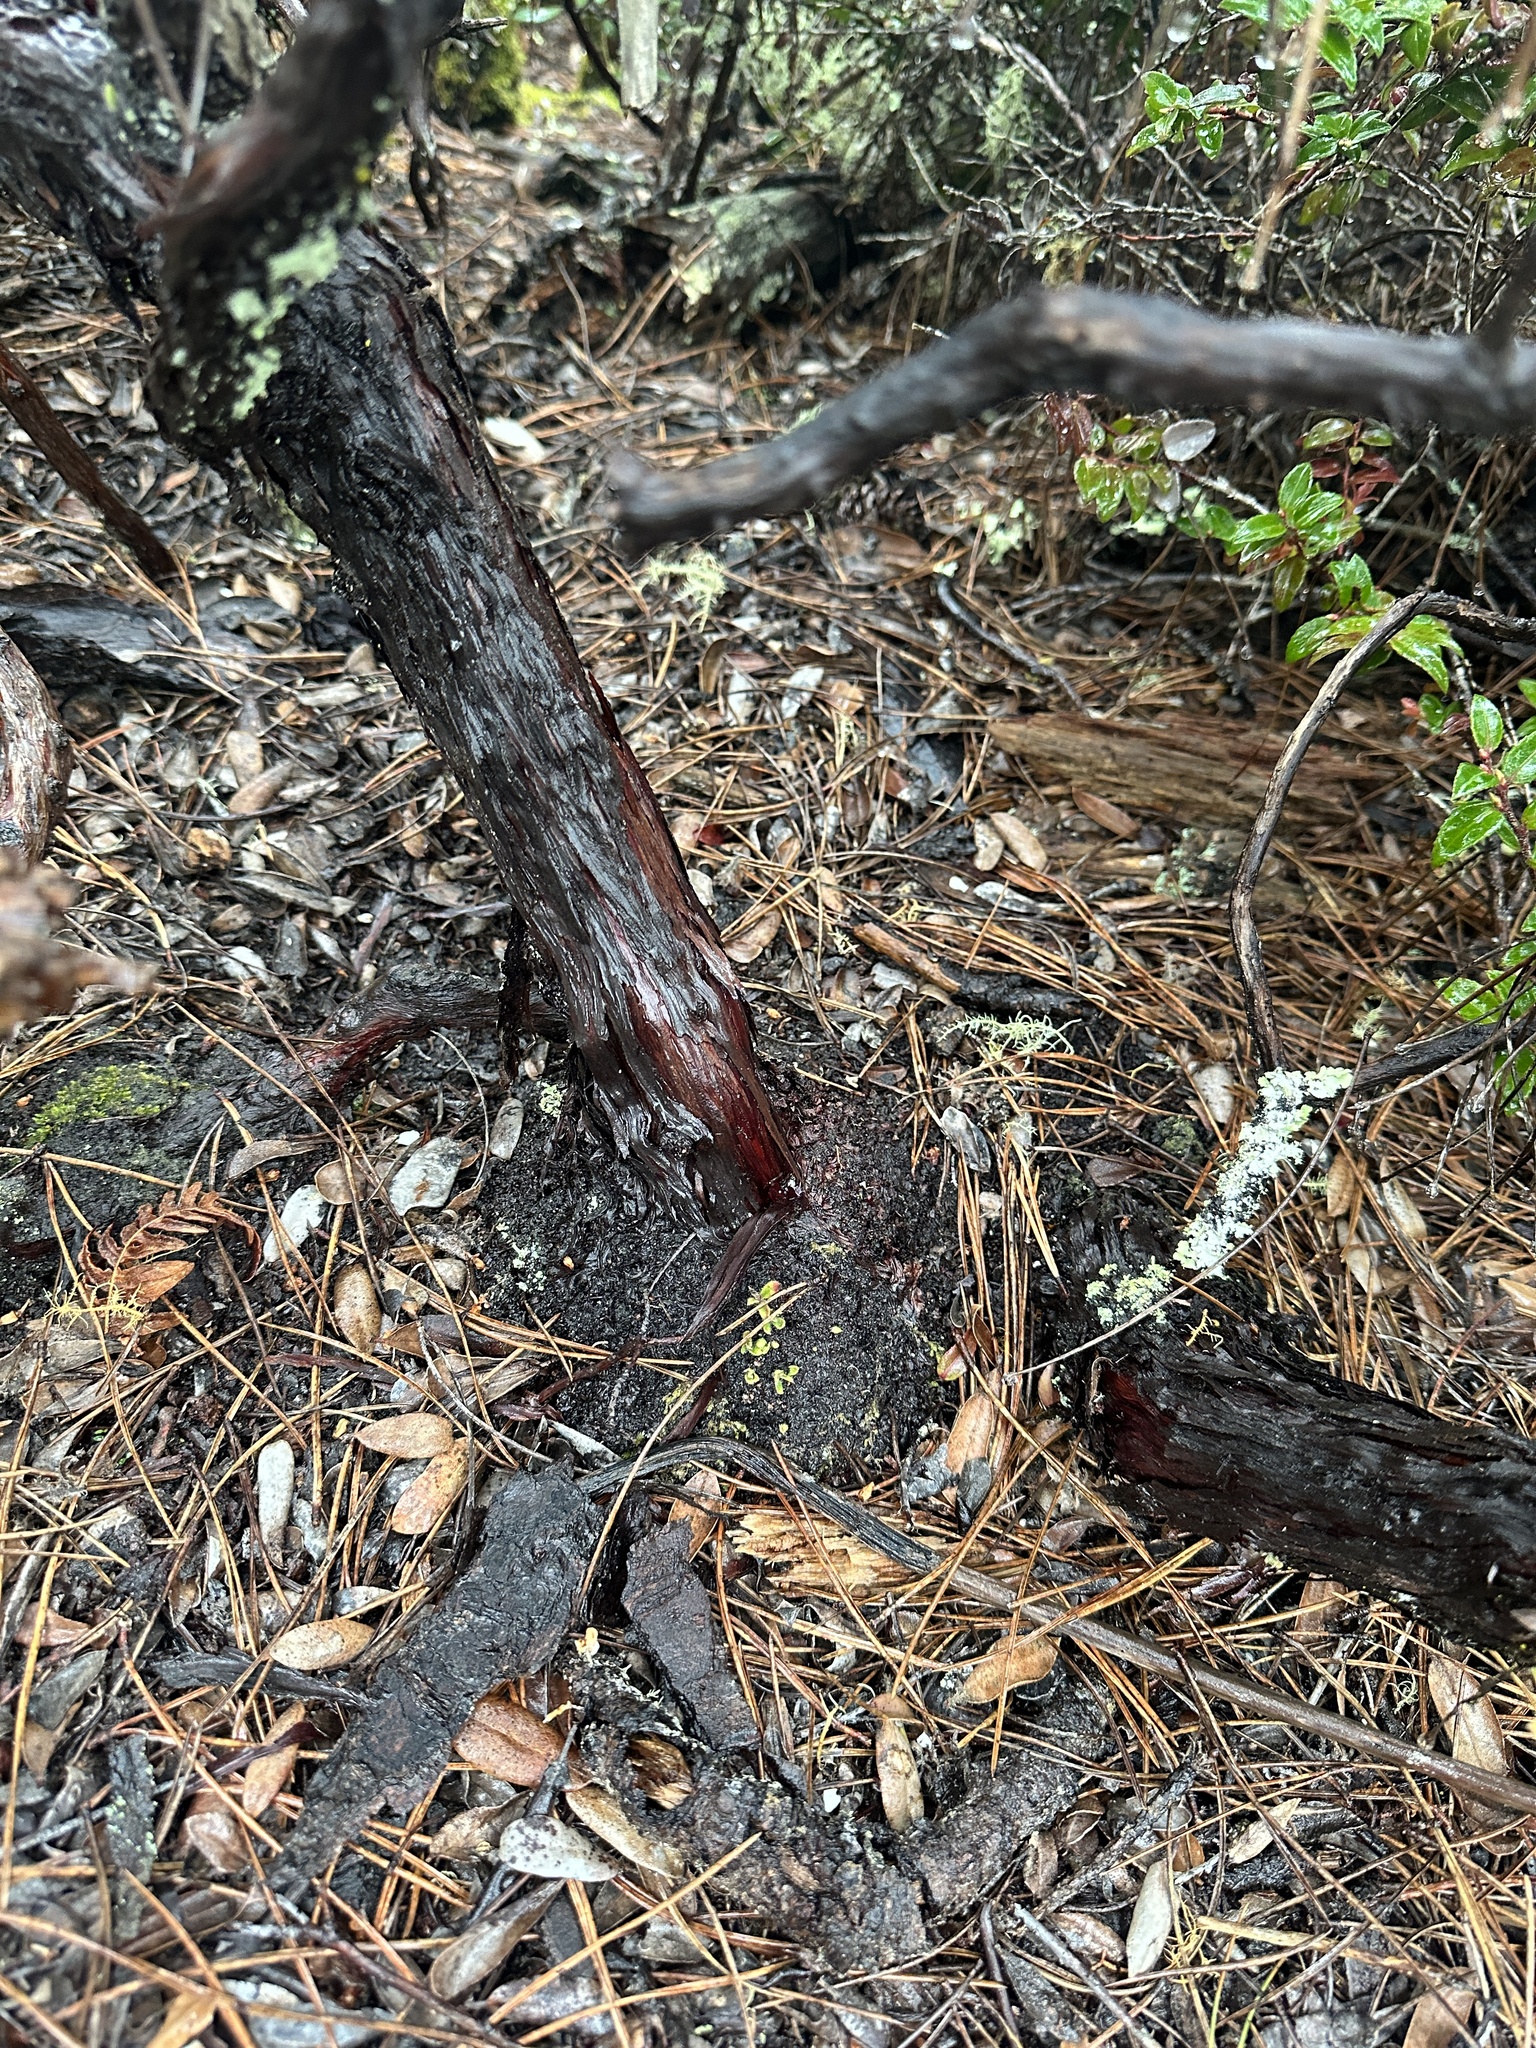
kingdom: Plantae
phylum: Tracheophyta
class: Magnoliopsida
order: Ericales
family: Ericaceae
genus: Arctostaphylos
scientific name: Arctostaphylos tomentosa
